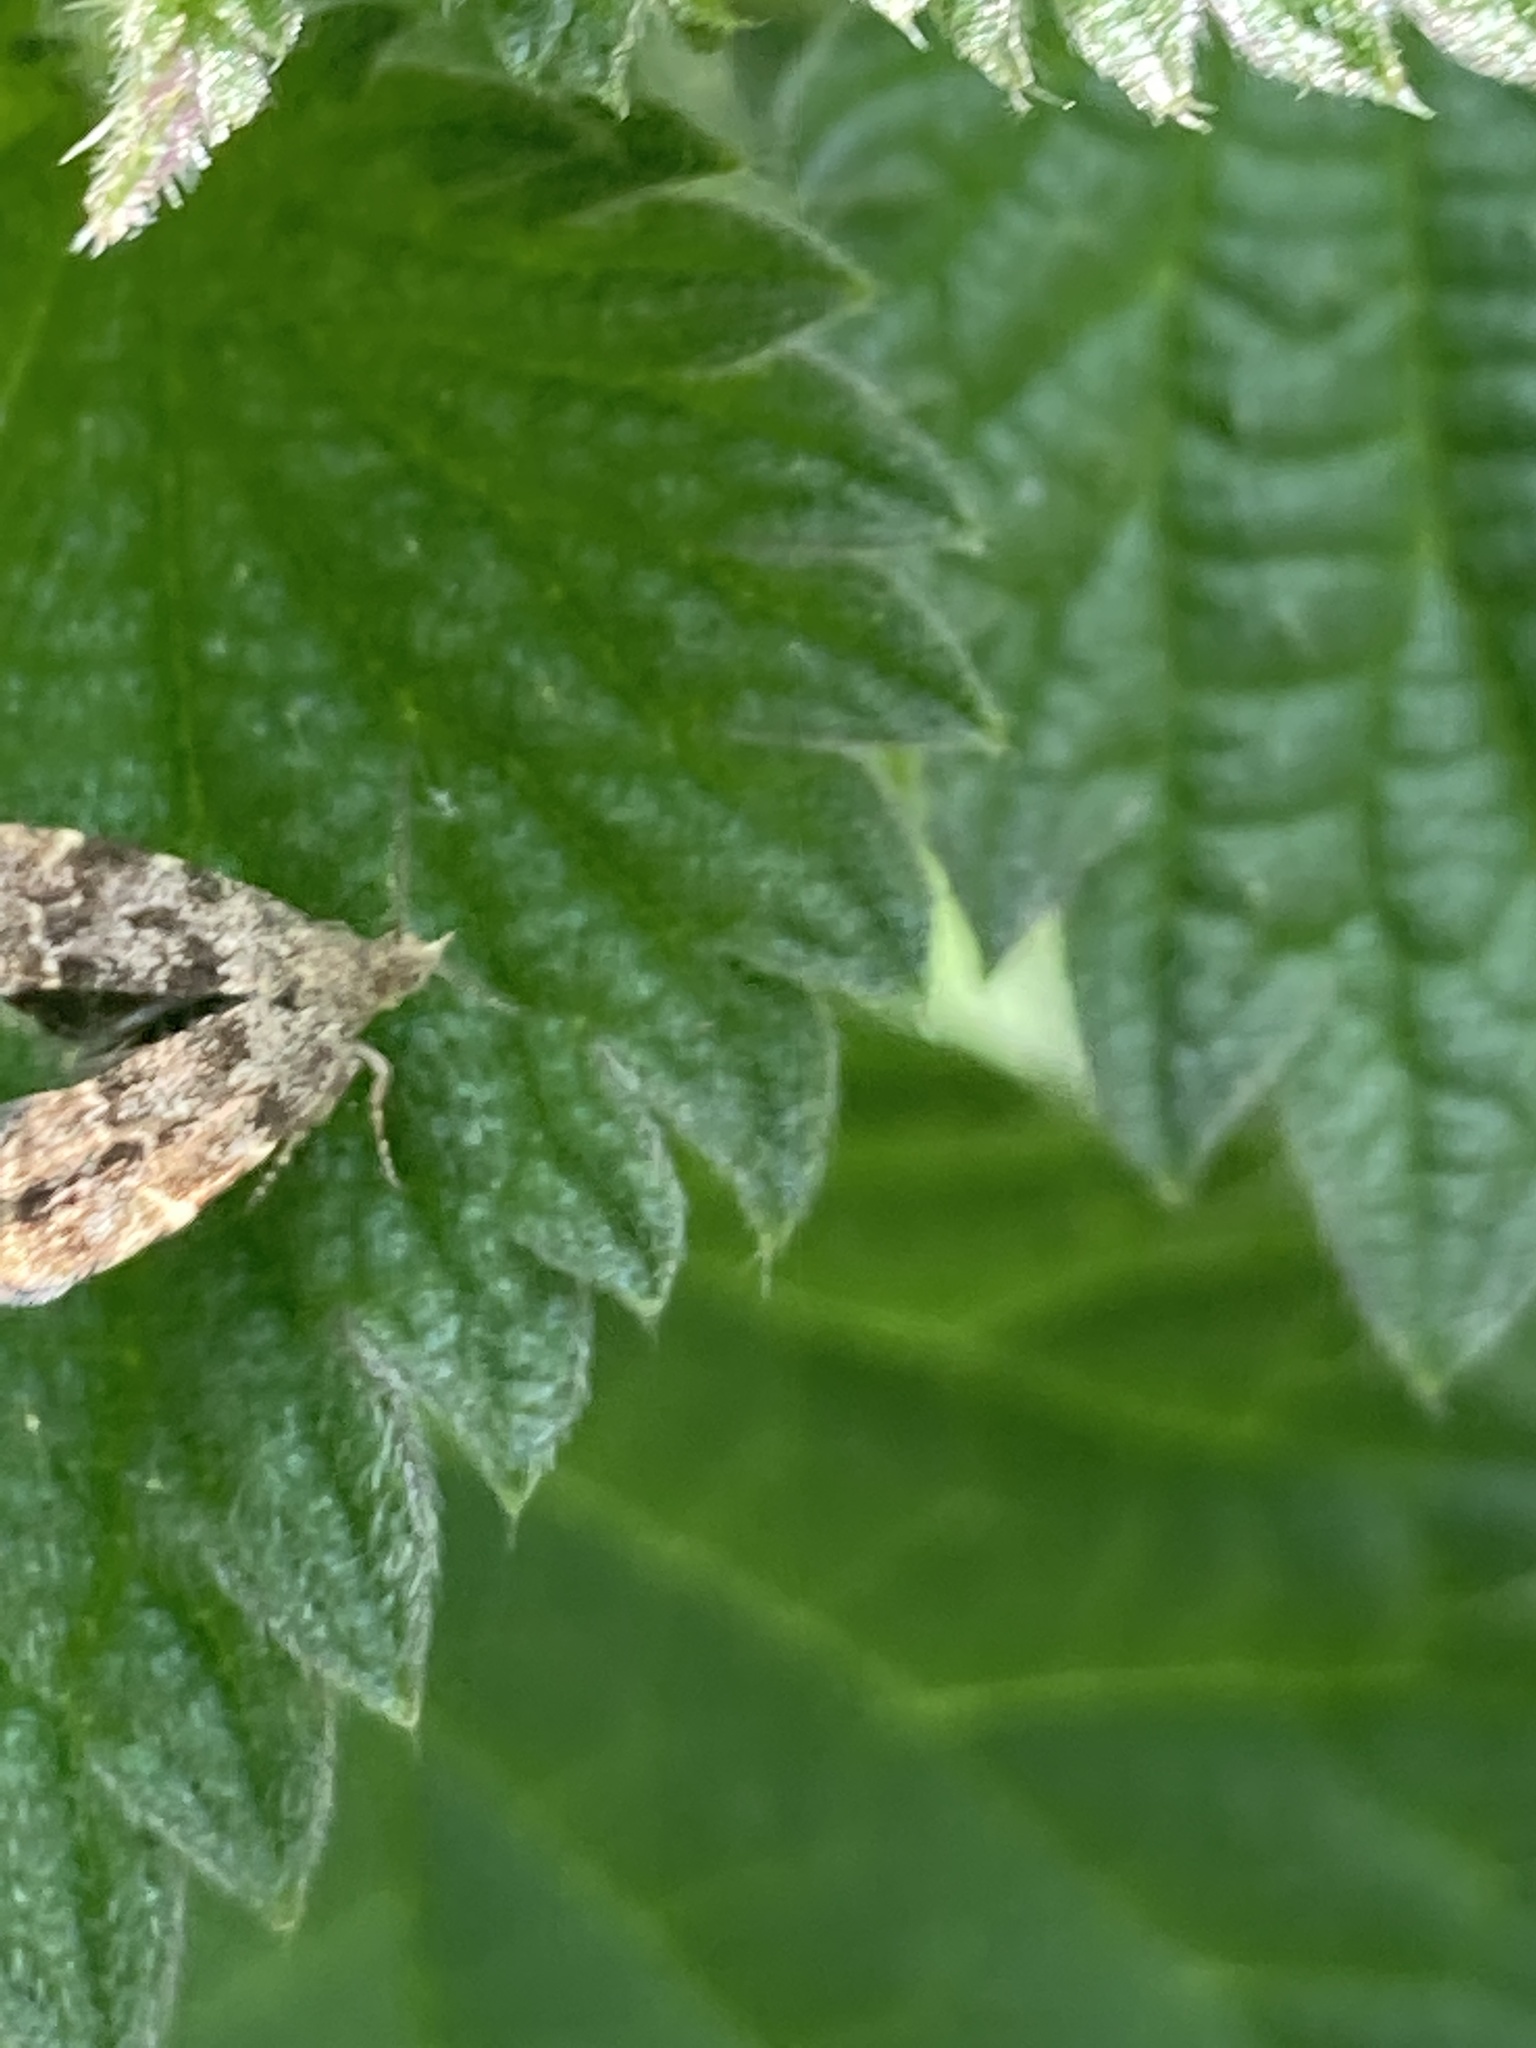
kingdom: Animalia
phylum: Arthropoda
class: Insecta
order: Lepidoptera
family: Choreutidae
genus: Anthophila
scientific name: Anthophila fabriciana
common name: Nettle-tap
